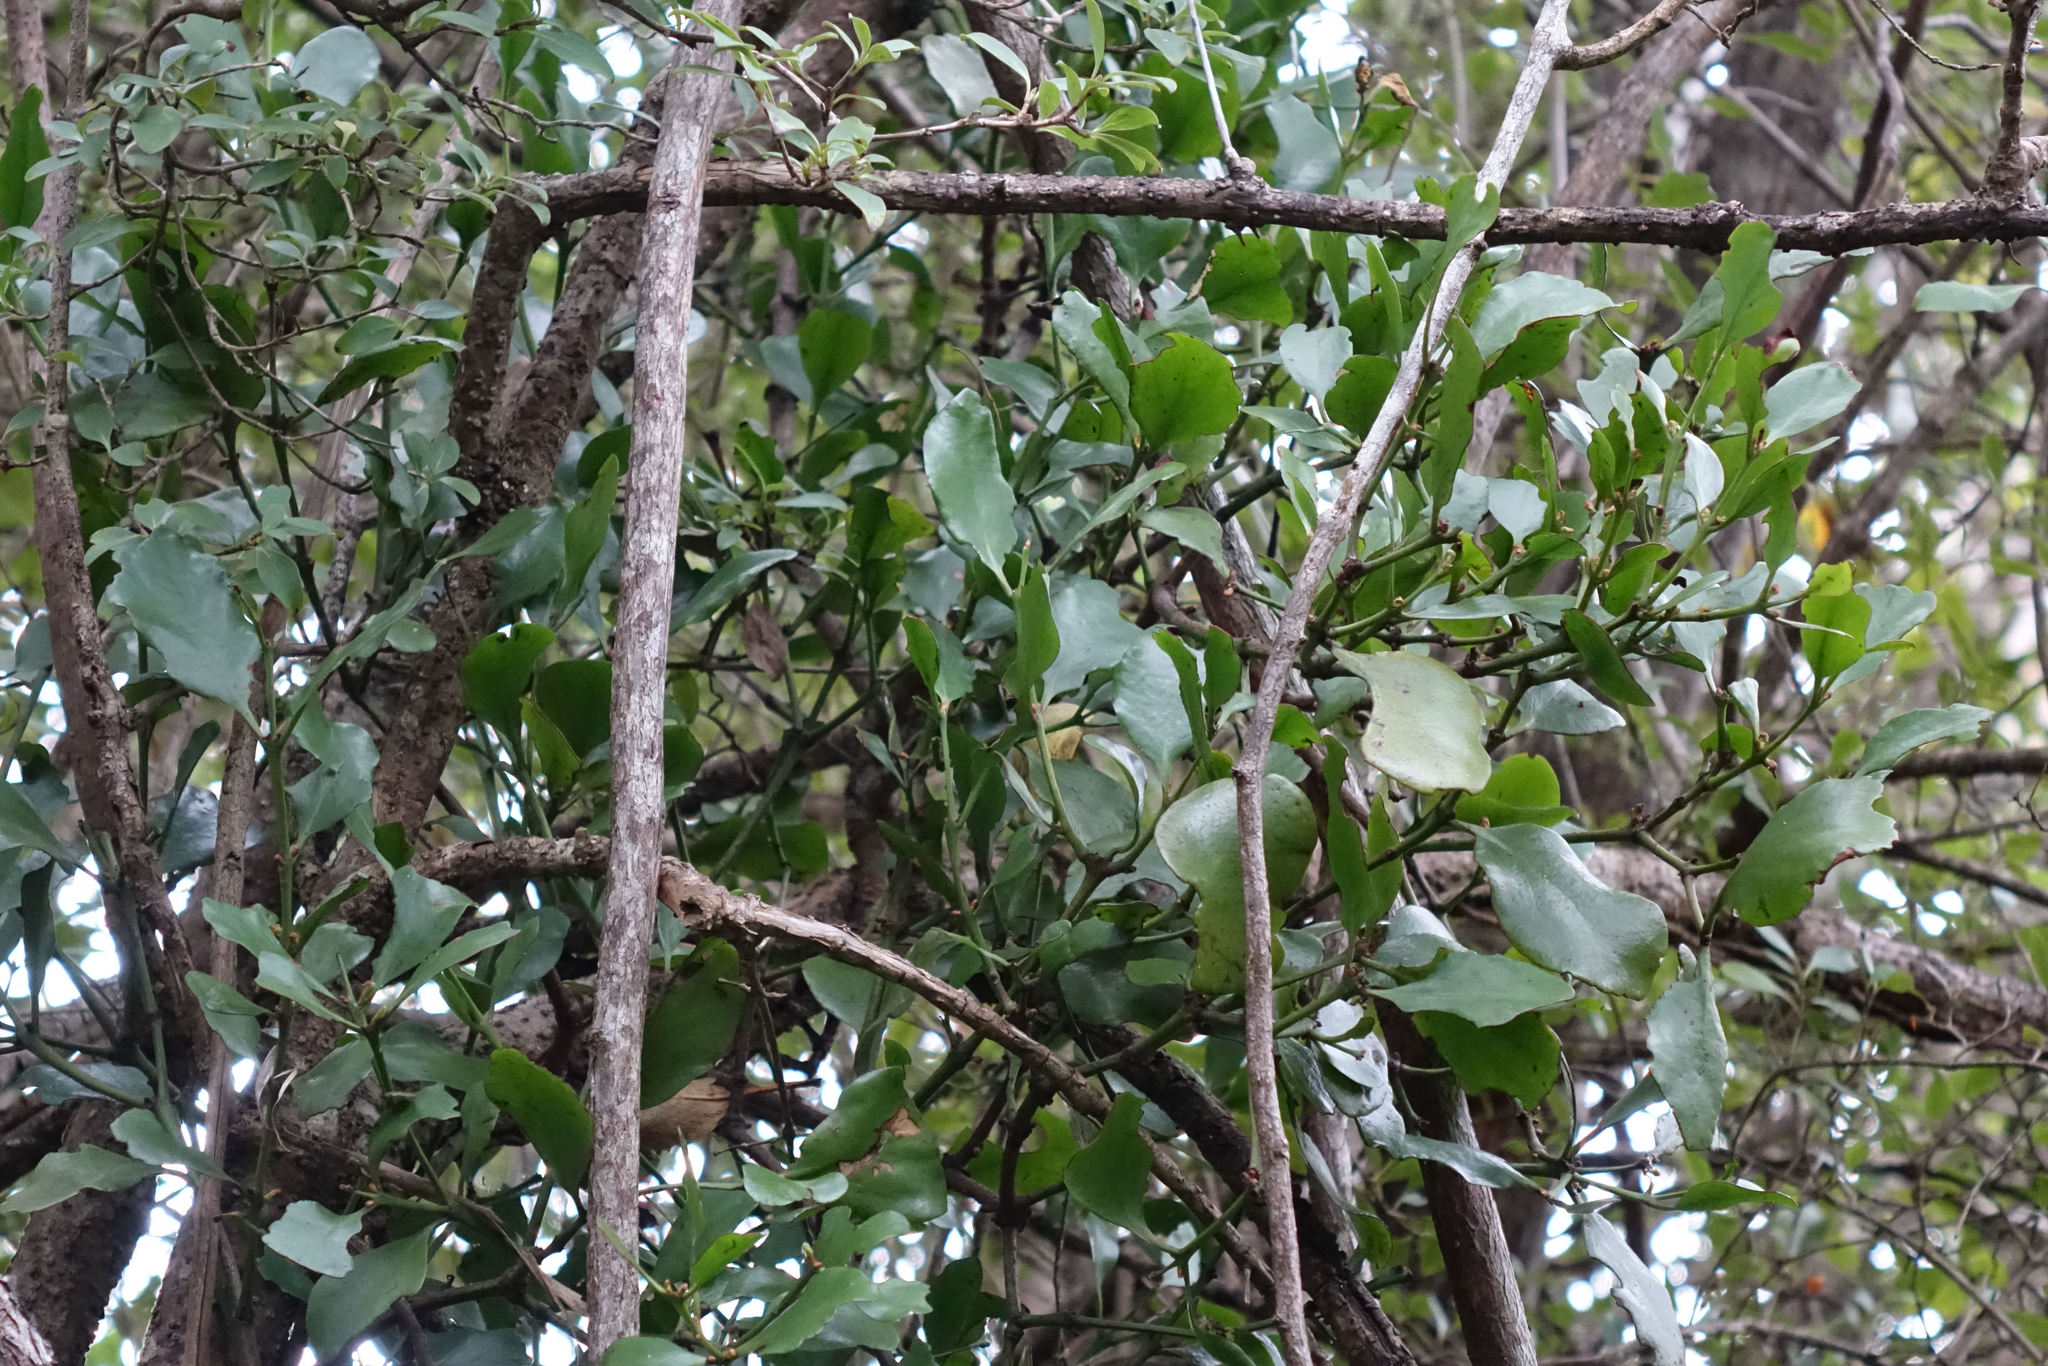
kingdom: Plantae
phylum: Tracheophyta
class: Magnoliopsida
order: Santalales
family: Loranthaceae
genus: Ileostylus
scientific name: Ileostylus micranthus
